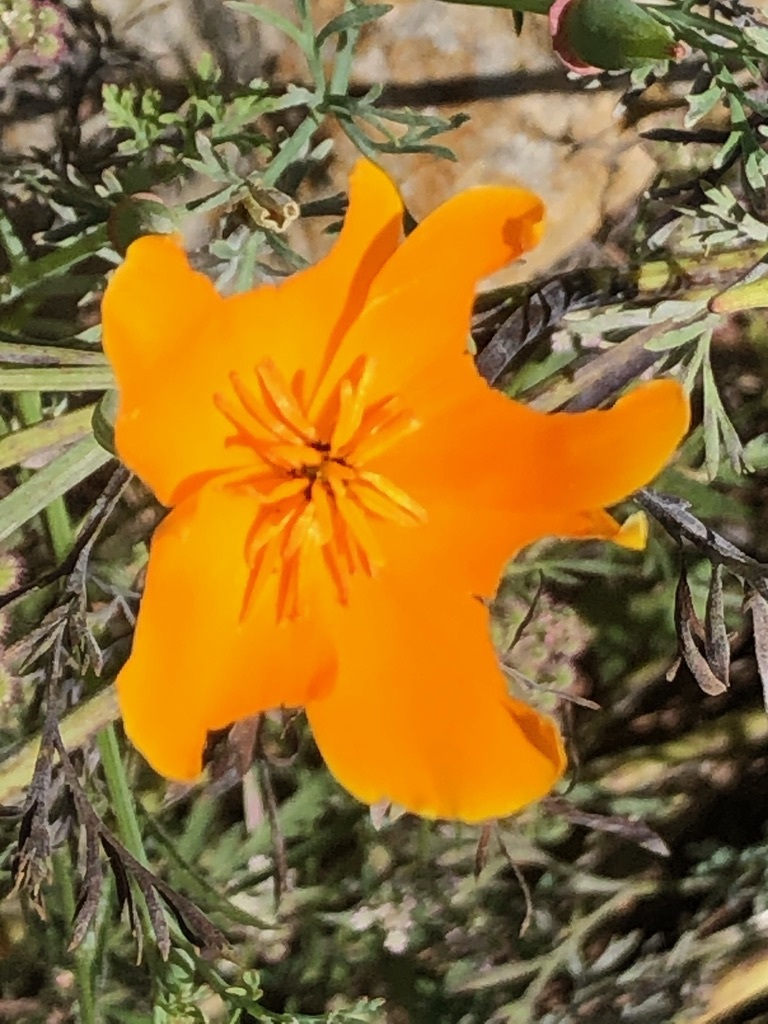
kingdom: Plantae
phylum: Tracheophyta
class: Magnoliopsida
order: Ranunculales
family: Papaveraceae
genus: Eschscholzia
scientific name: Eschscholzia californica
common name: California poppy
